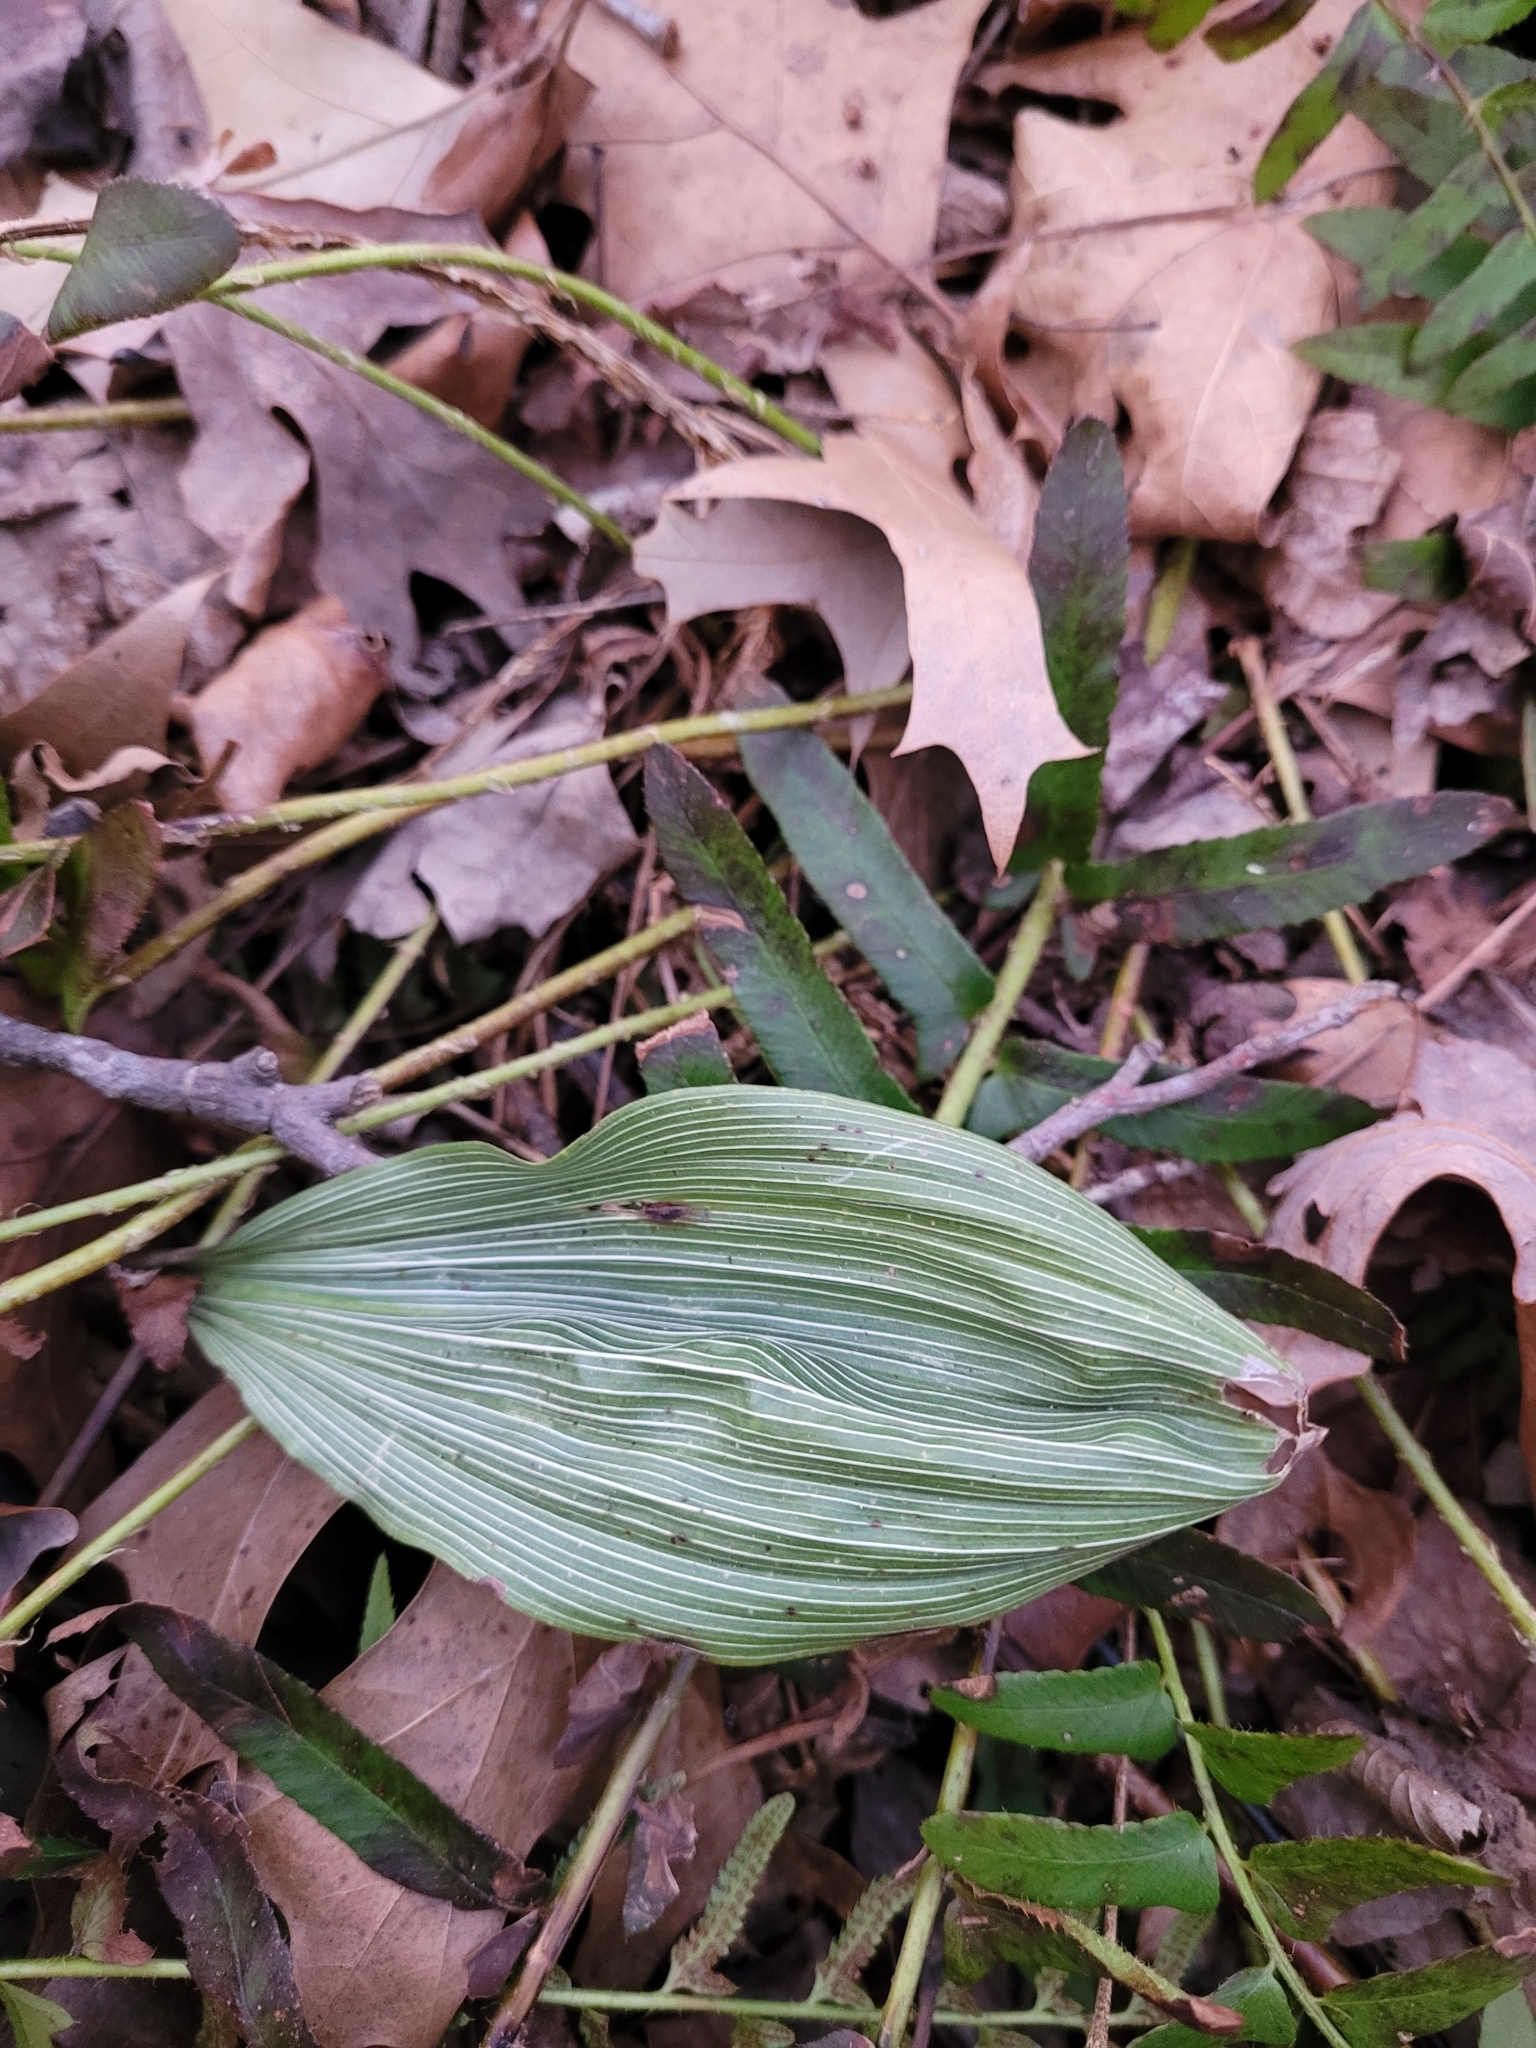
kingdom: Plantae
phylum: Tracheophyta
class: Liliopsida
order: Asparagales
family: Orchidaceae
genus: Aplectrum
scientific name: Aplectrum hyemale
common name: Adam-and-eve
